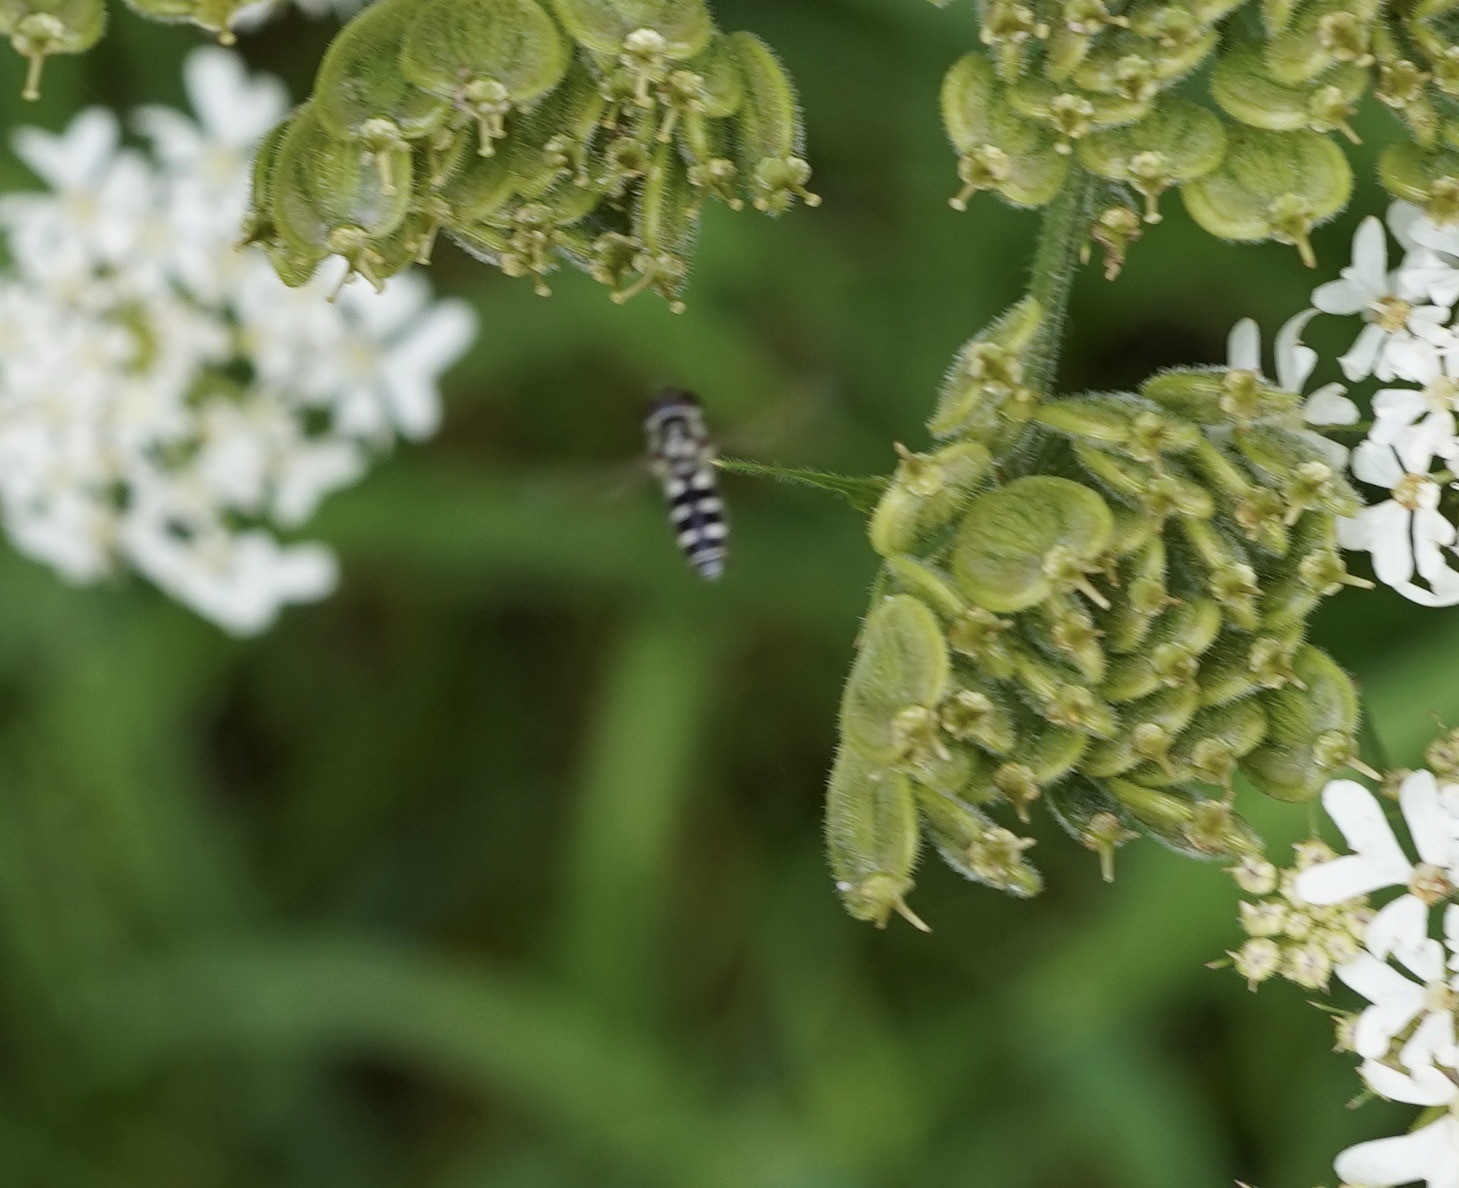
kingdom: Animalia
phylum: Arthropoda
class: Insecta
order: Diptera
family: Syrphidae
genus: Melangyna
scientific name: Melangyna
